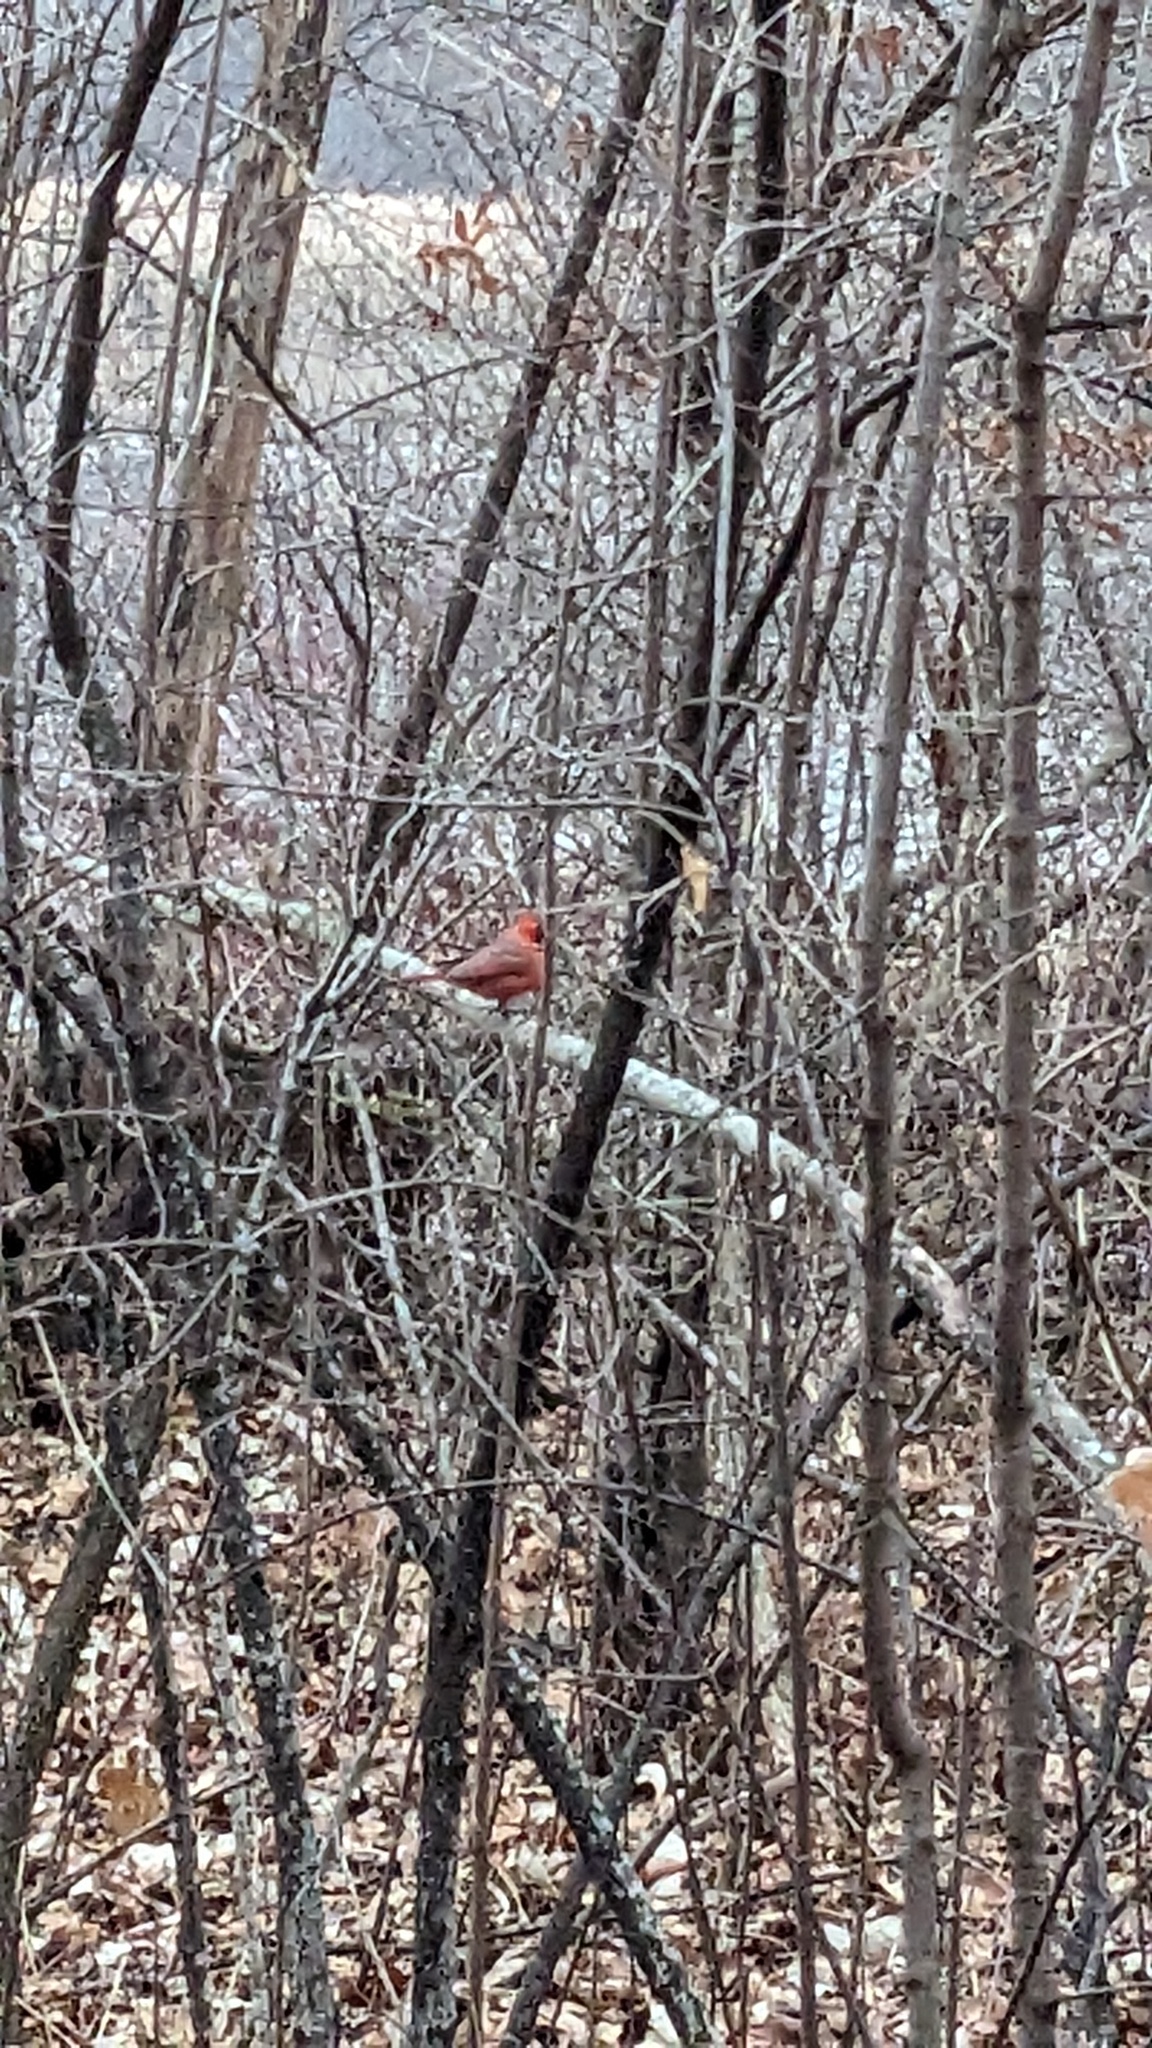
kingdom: Animalia
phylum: Chordata
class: Aves
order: Passeriformes
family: Cardinalidae
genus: Cardinalis
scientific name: Cardinalis cardinalis
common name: Northern cardinal
